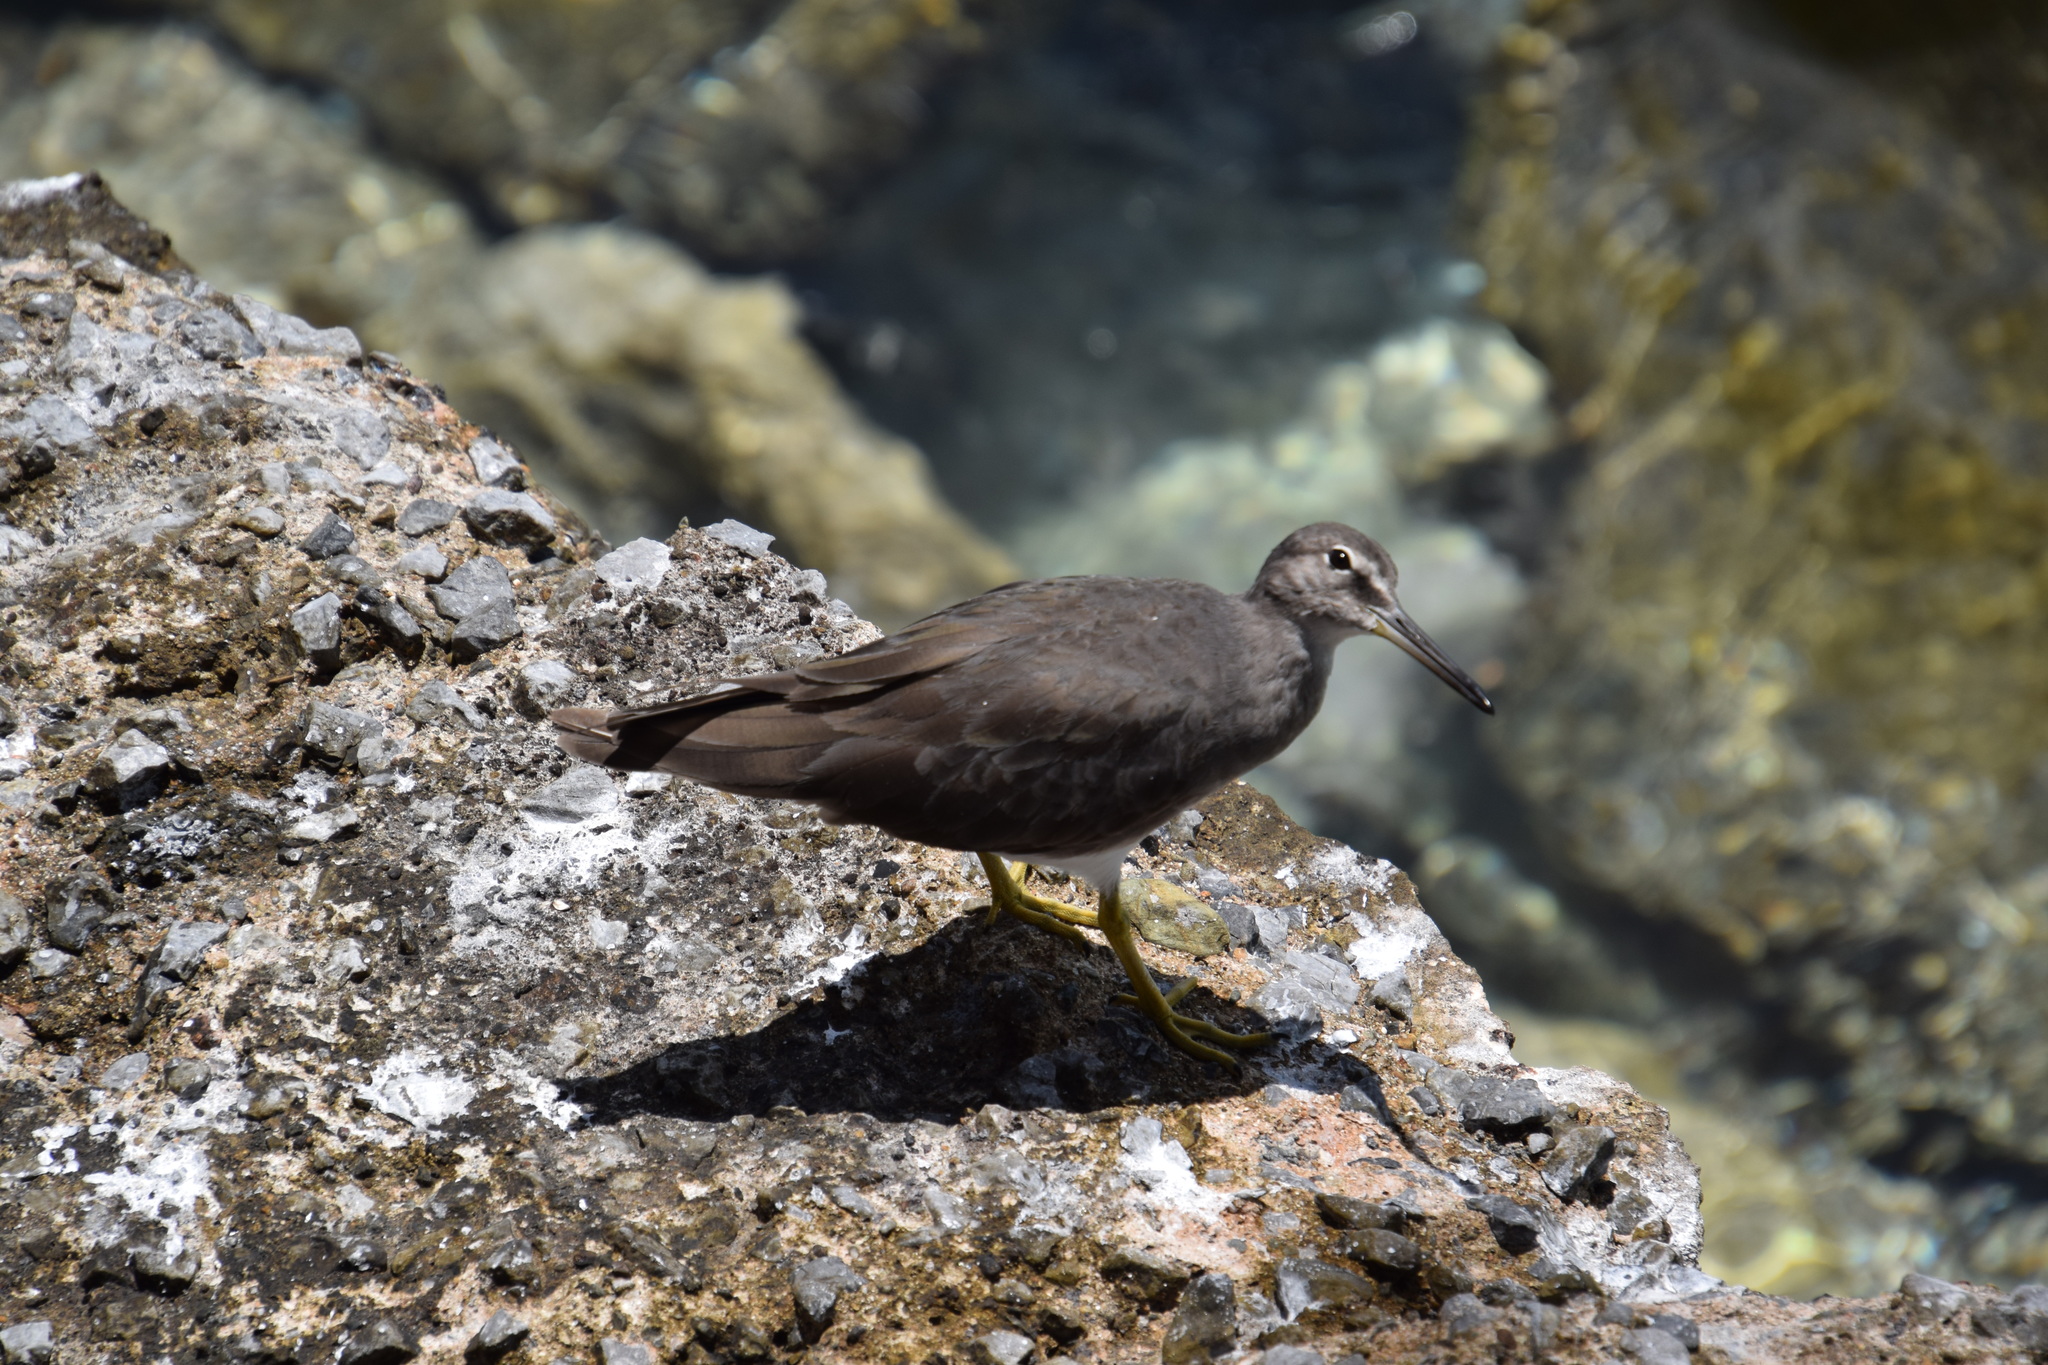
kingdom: Animalia
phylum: Chordata
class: Aves
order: Charadriiformes
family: Scolopacidae
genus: Tringa
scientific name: Tringa incana
